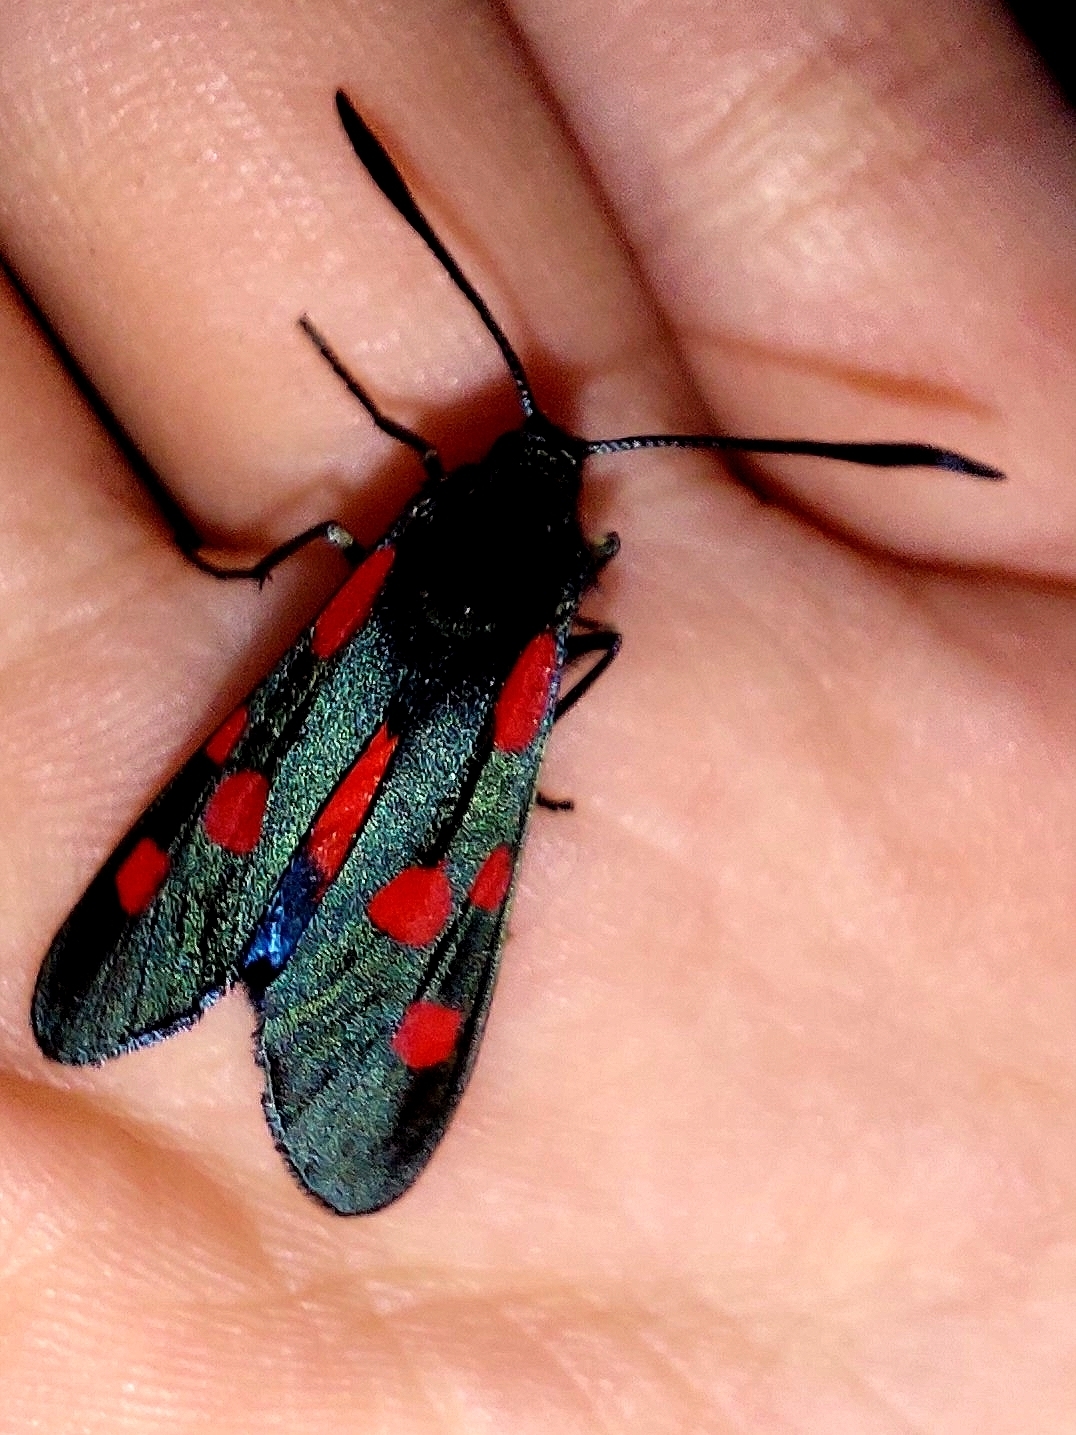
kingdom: Animalia
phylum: Arthropoda
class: Insecta
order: Lepidoptera
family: Zygaenidae
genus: Zygaena
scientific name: Zygaena lonicerae
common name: Narrow-bordered five-spot burnet
